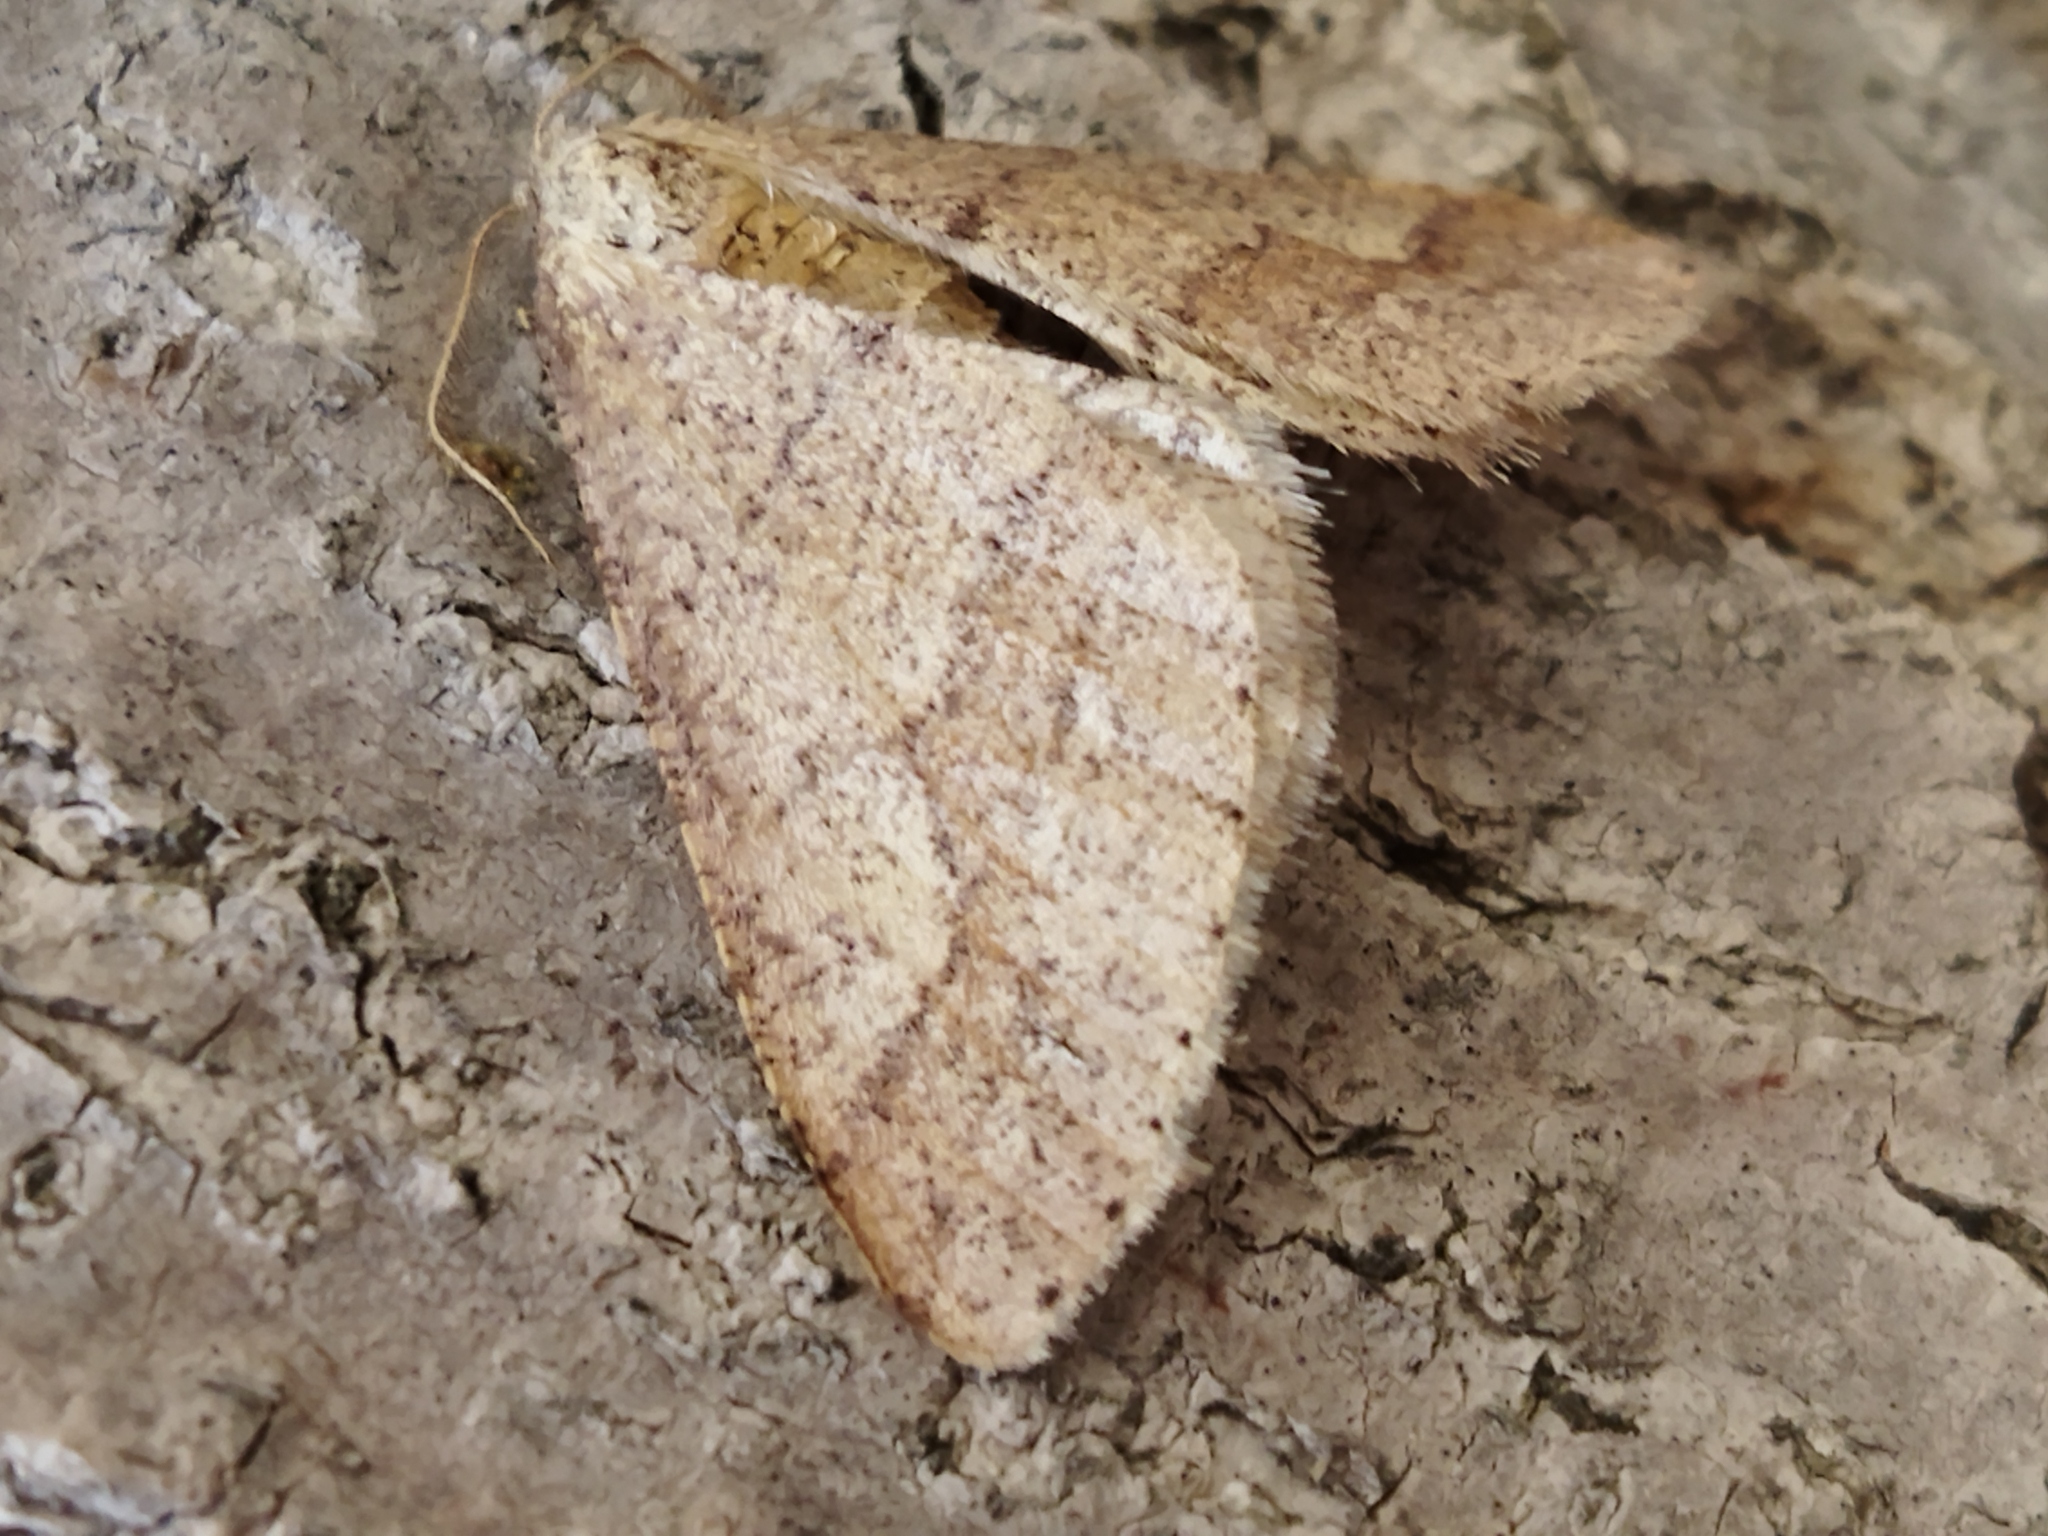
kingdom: Animalia
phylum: Arthropoda
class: Insecta
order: Lepidoptera
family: Geometridae
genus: Agriopis
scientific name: Agriopis marginaria
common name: Dotted border
